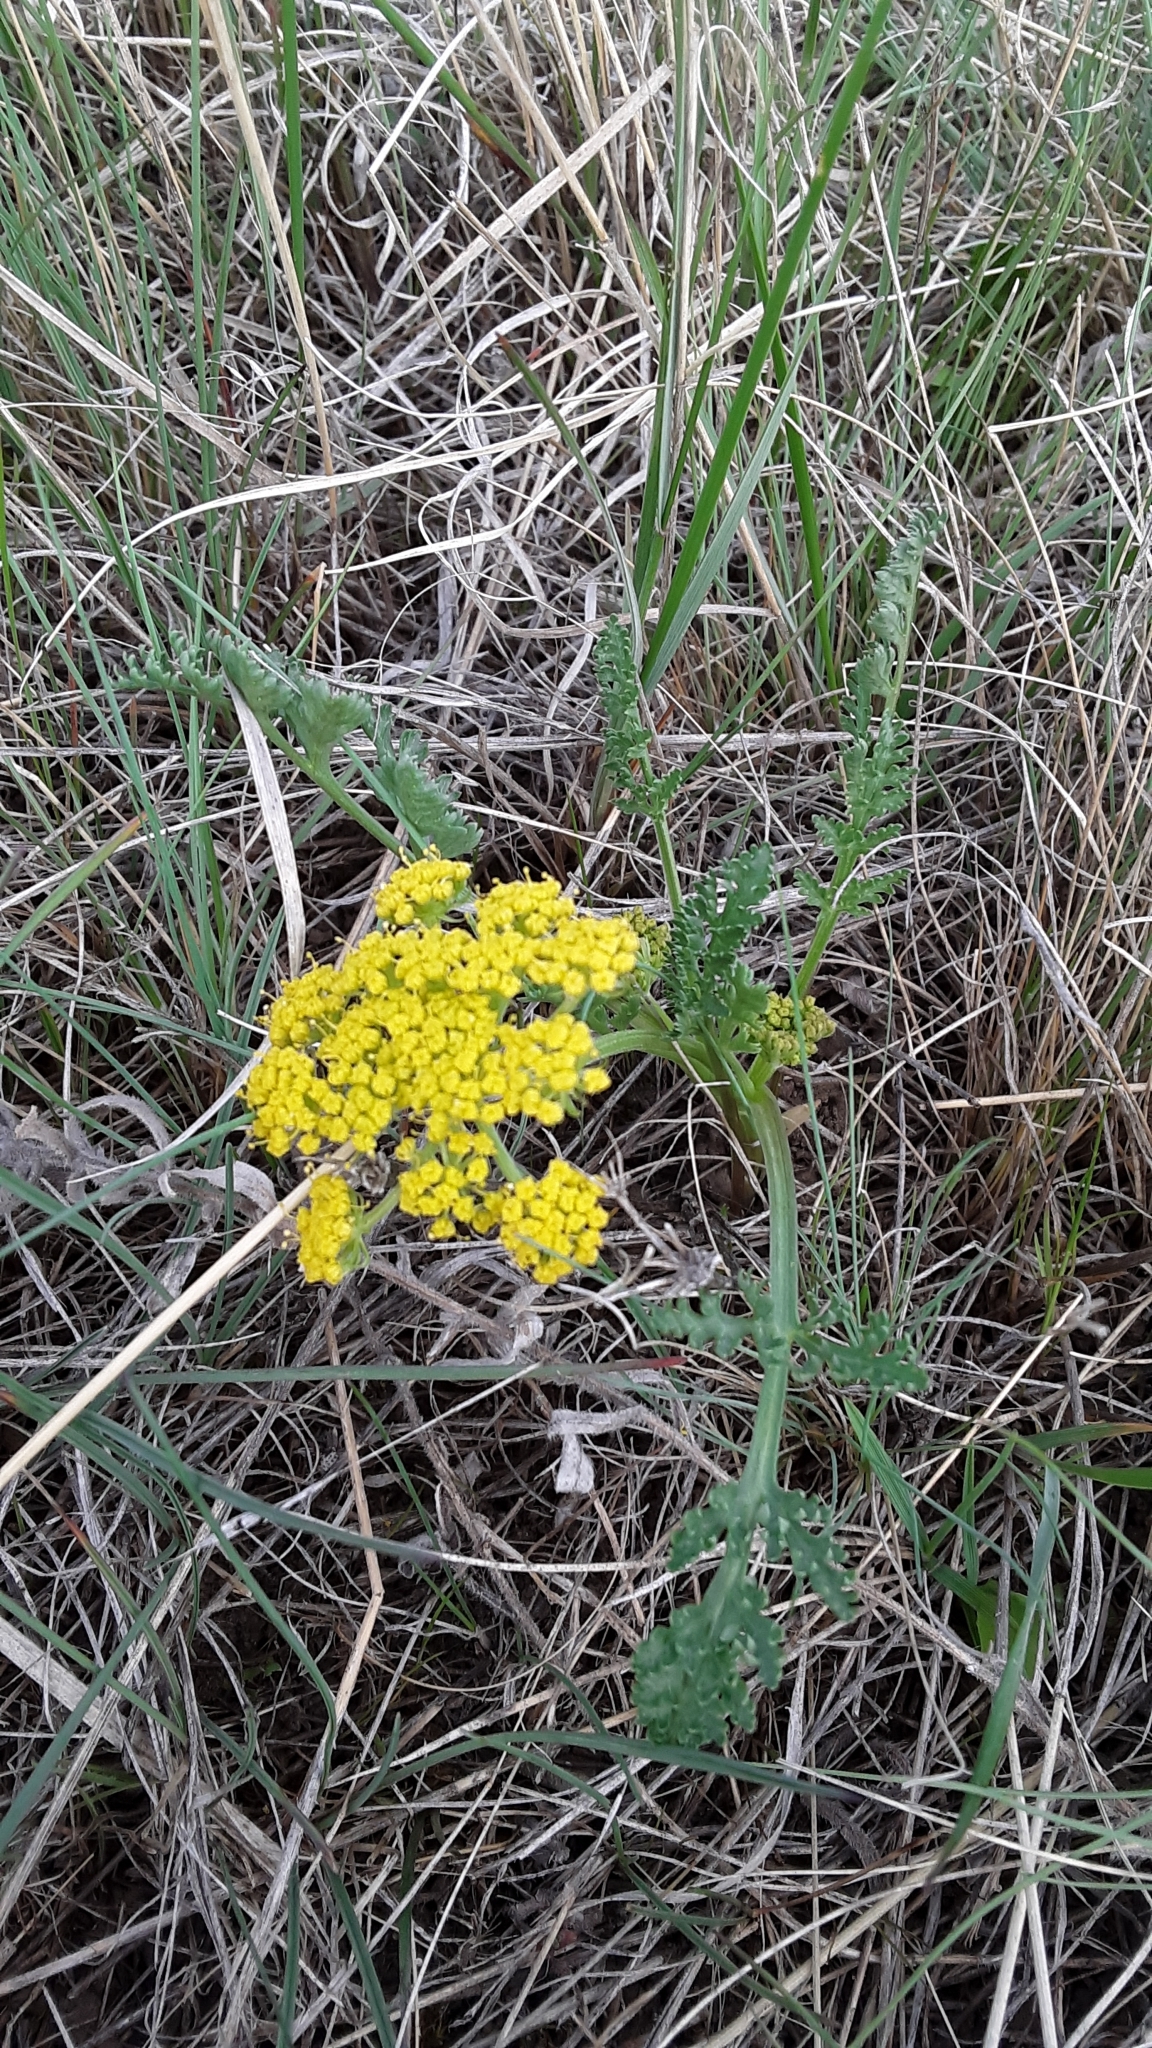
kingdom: Plantae
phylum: Tracheophyta
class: Magnoliopsida
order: Apiales
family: Apiaceae
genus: Musineon
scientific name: Musineon divaricatum
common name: Plains musineon
